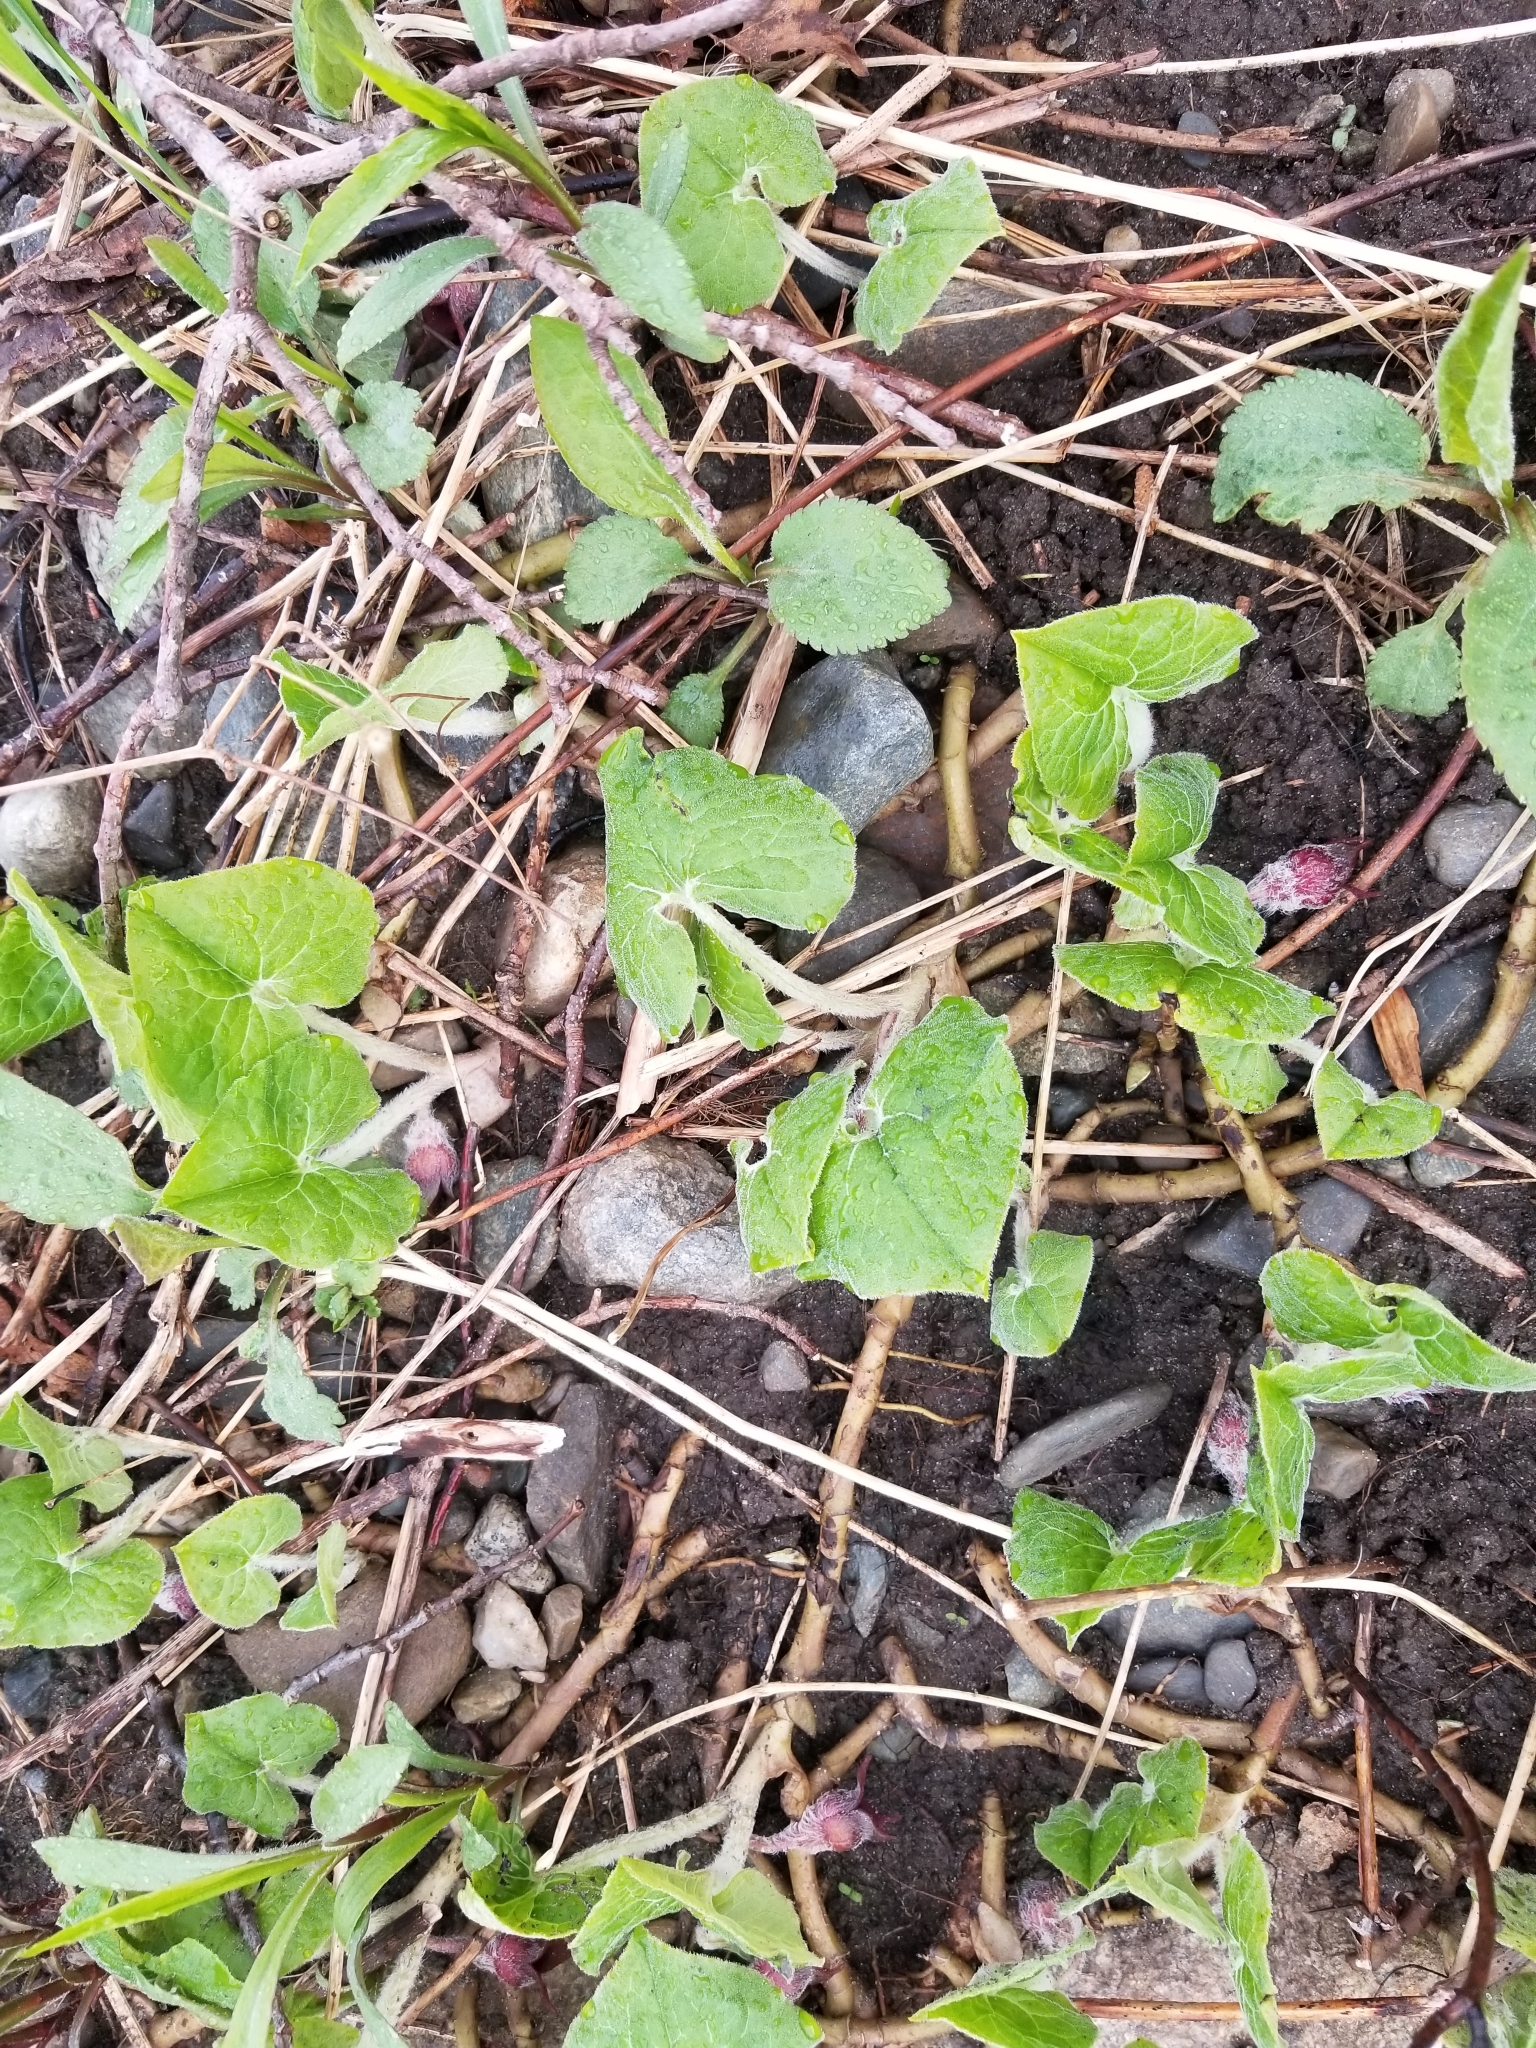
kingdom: Plantae
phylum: Tracheophyta
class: Magnoliopsida
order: Piperales
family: Aristolochiaceae
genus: Asarum
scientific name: Asarum canadense
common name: Wild ginger
